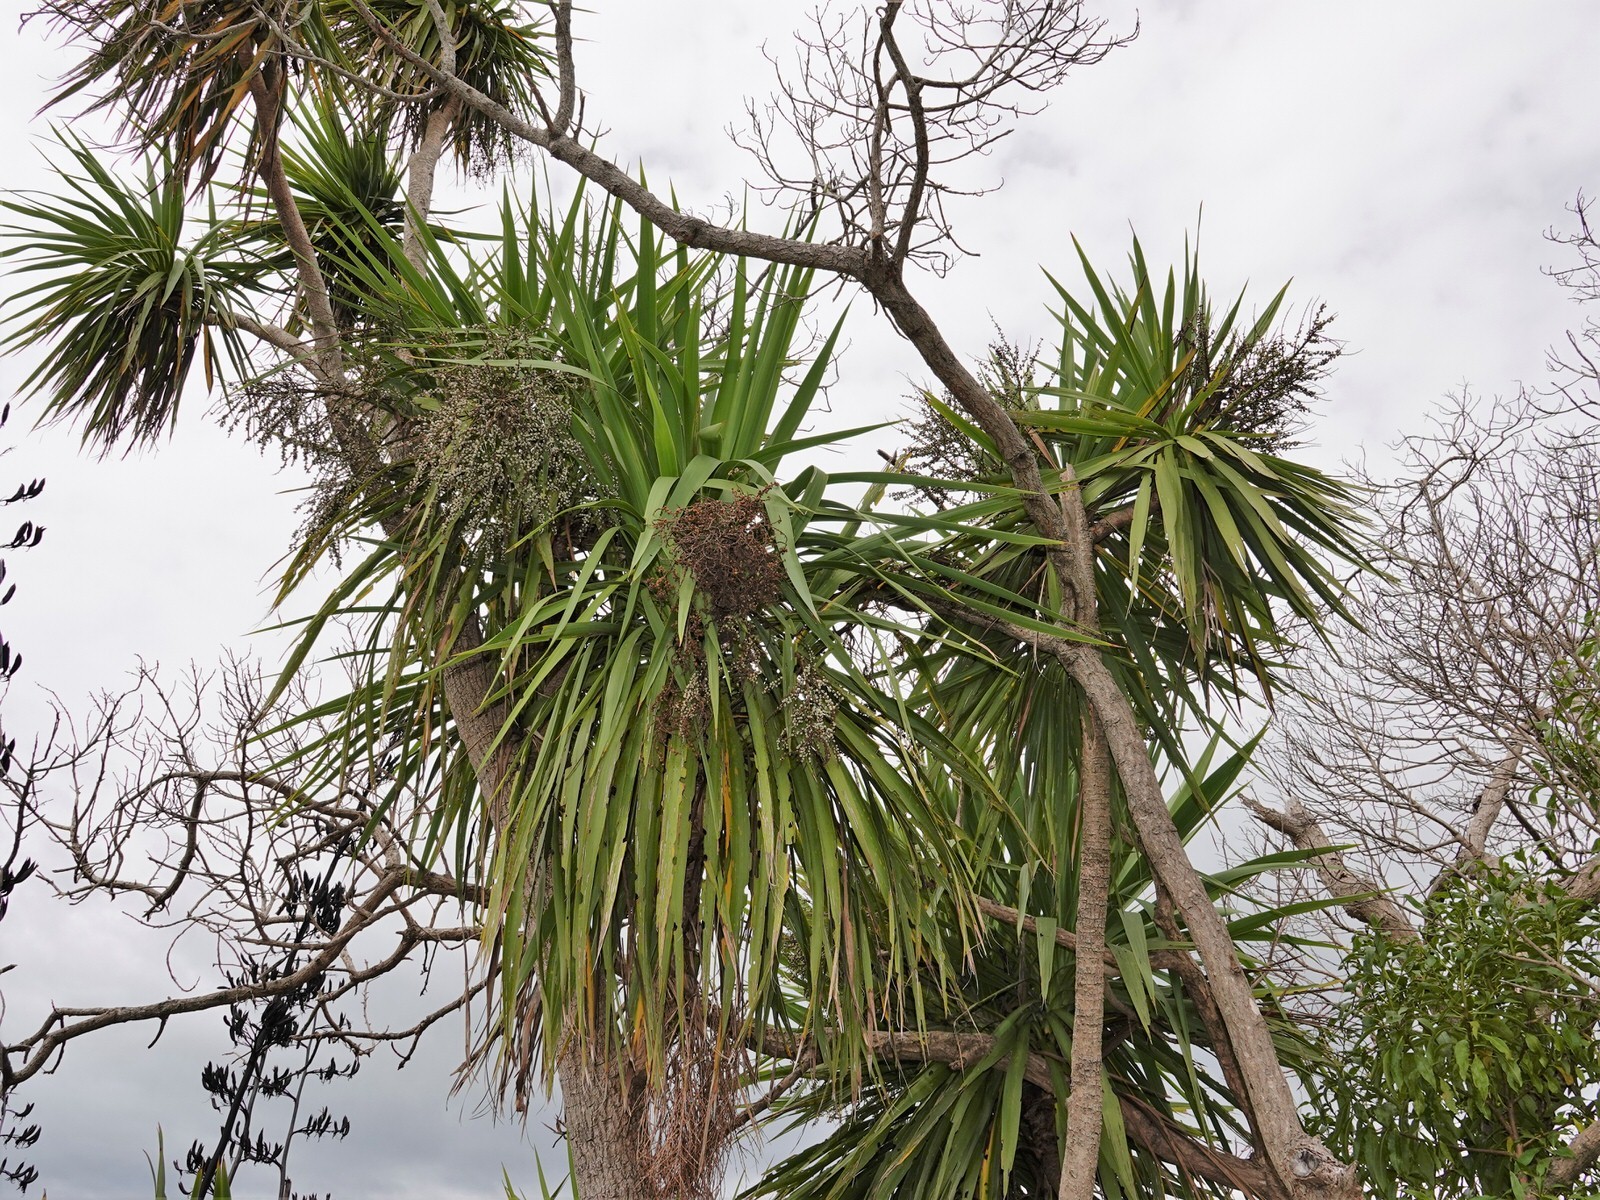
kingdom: Plantae
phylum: Tracheophyta
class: Liliopsida
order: Asparagales
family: Asparagaceae
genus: Cordyline
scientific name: Cordyline australis
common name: Cabbage-palm
